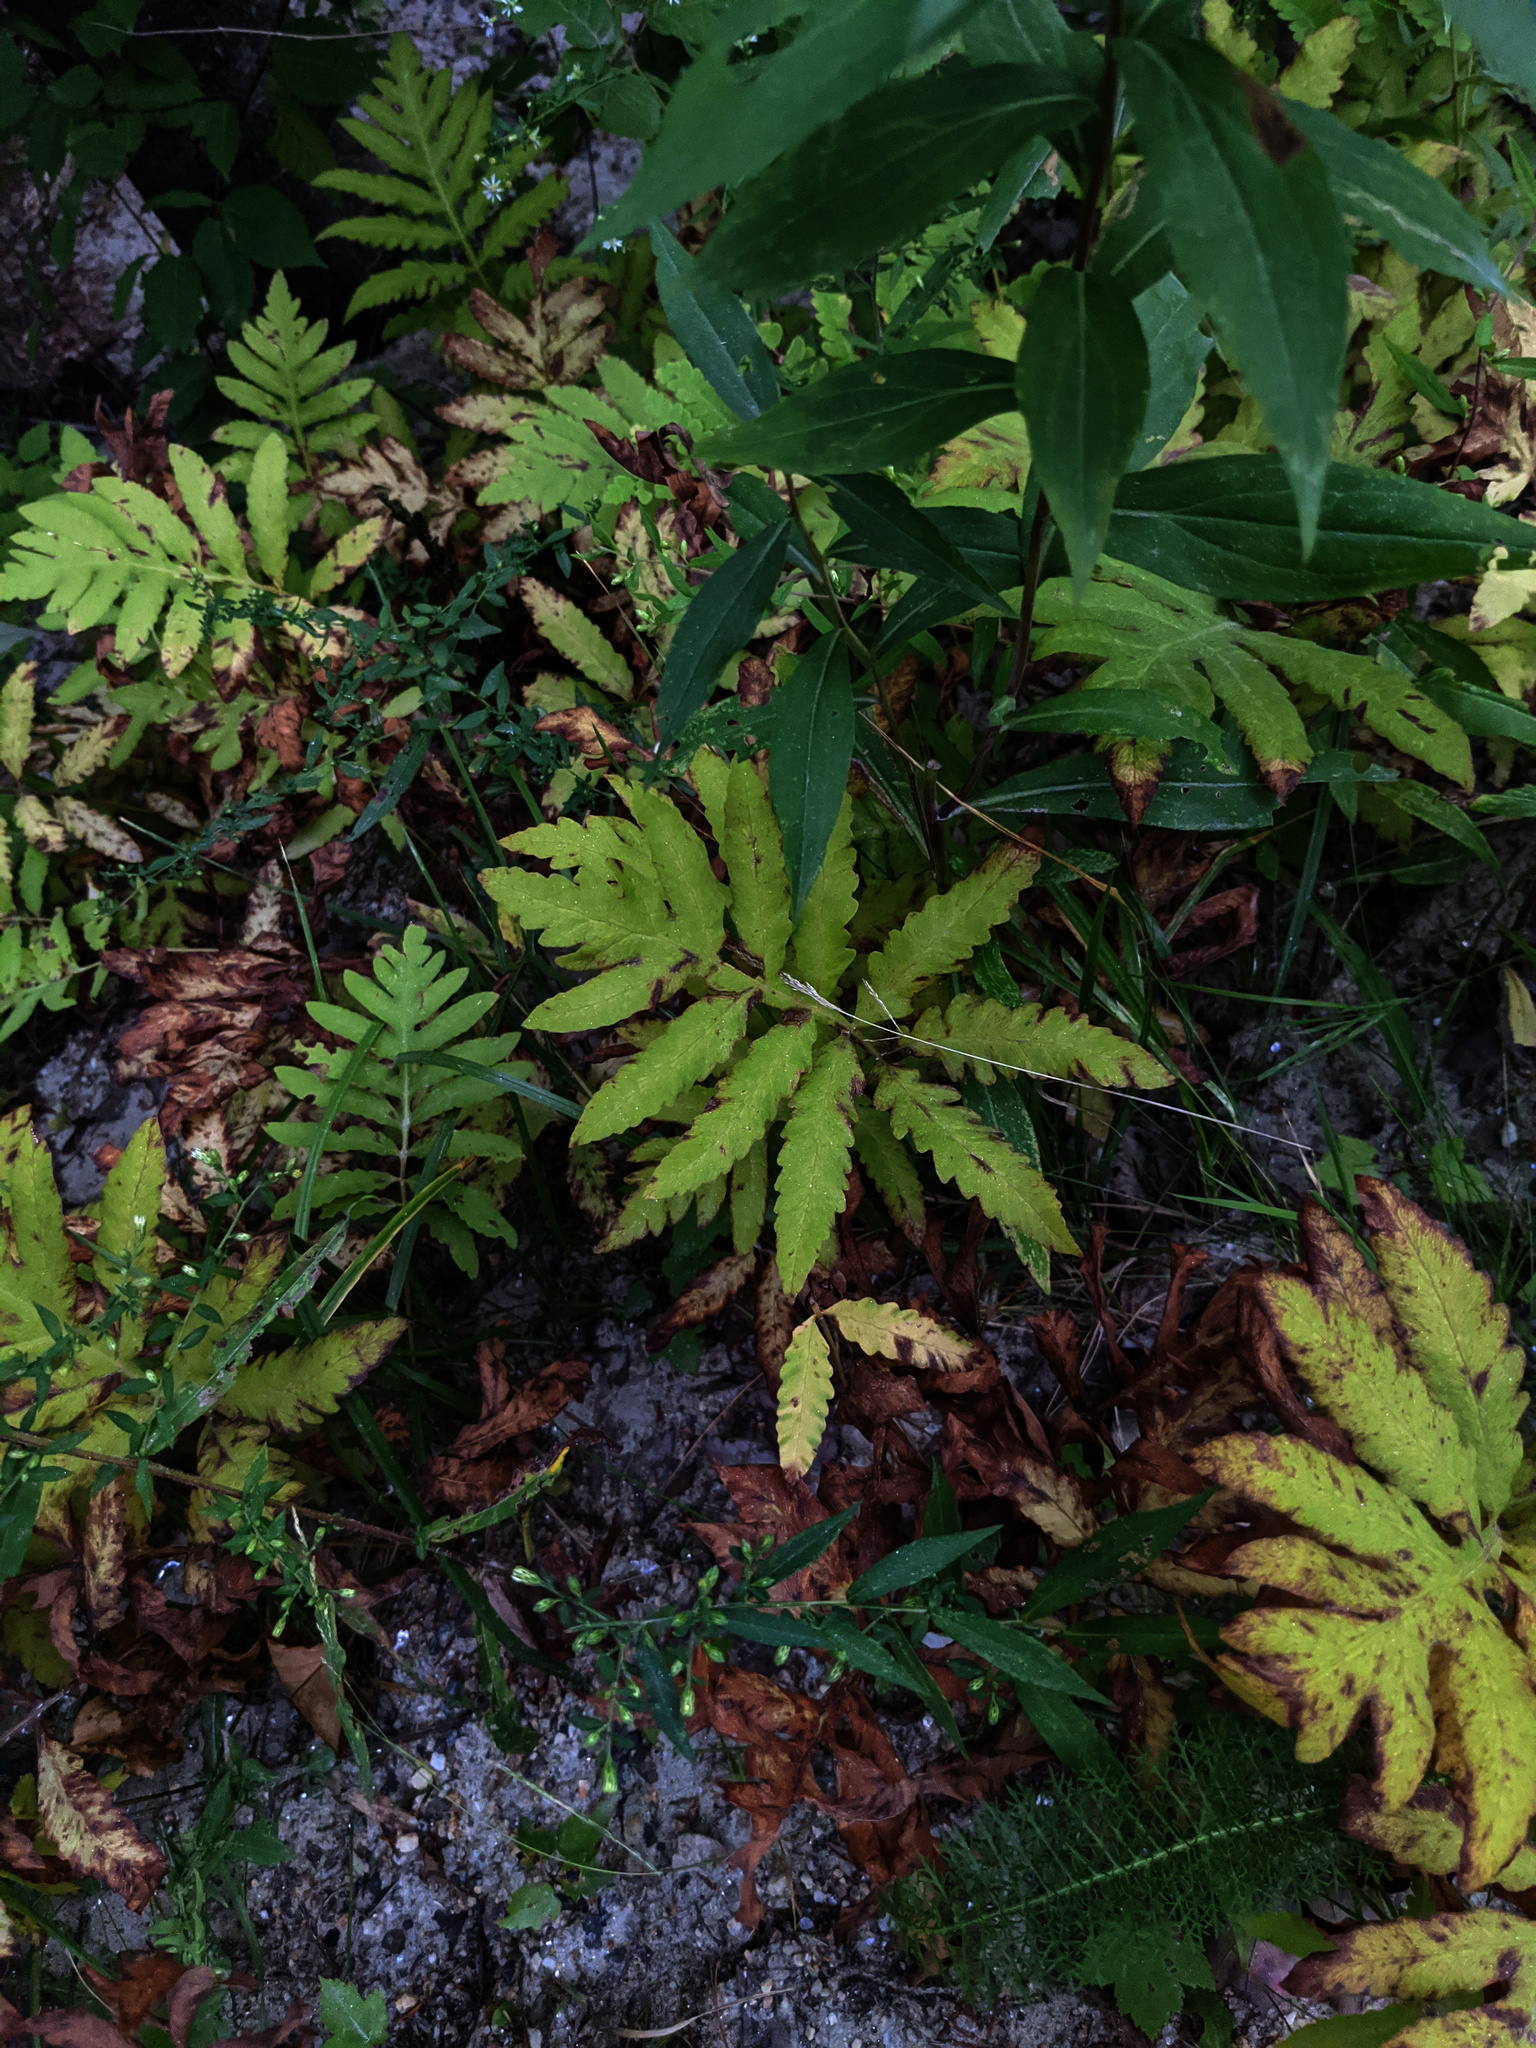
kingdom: Plantae
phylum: Tracheophyta
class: Polypodiopsida
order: Polypodiales
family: Onocleaceae
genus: Onoclea
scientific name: Onoclea sensibilis
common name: Sensitive fern
